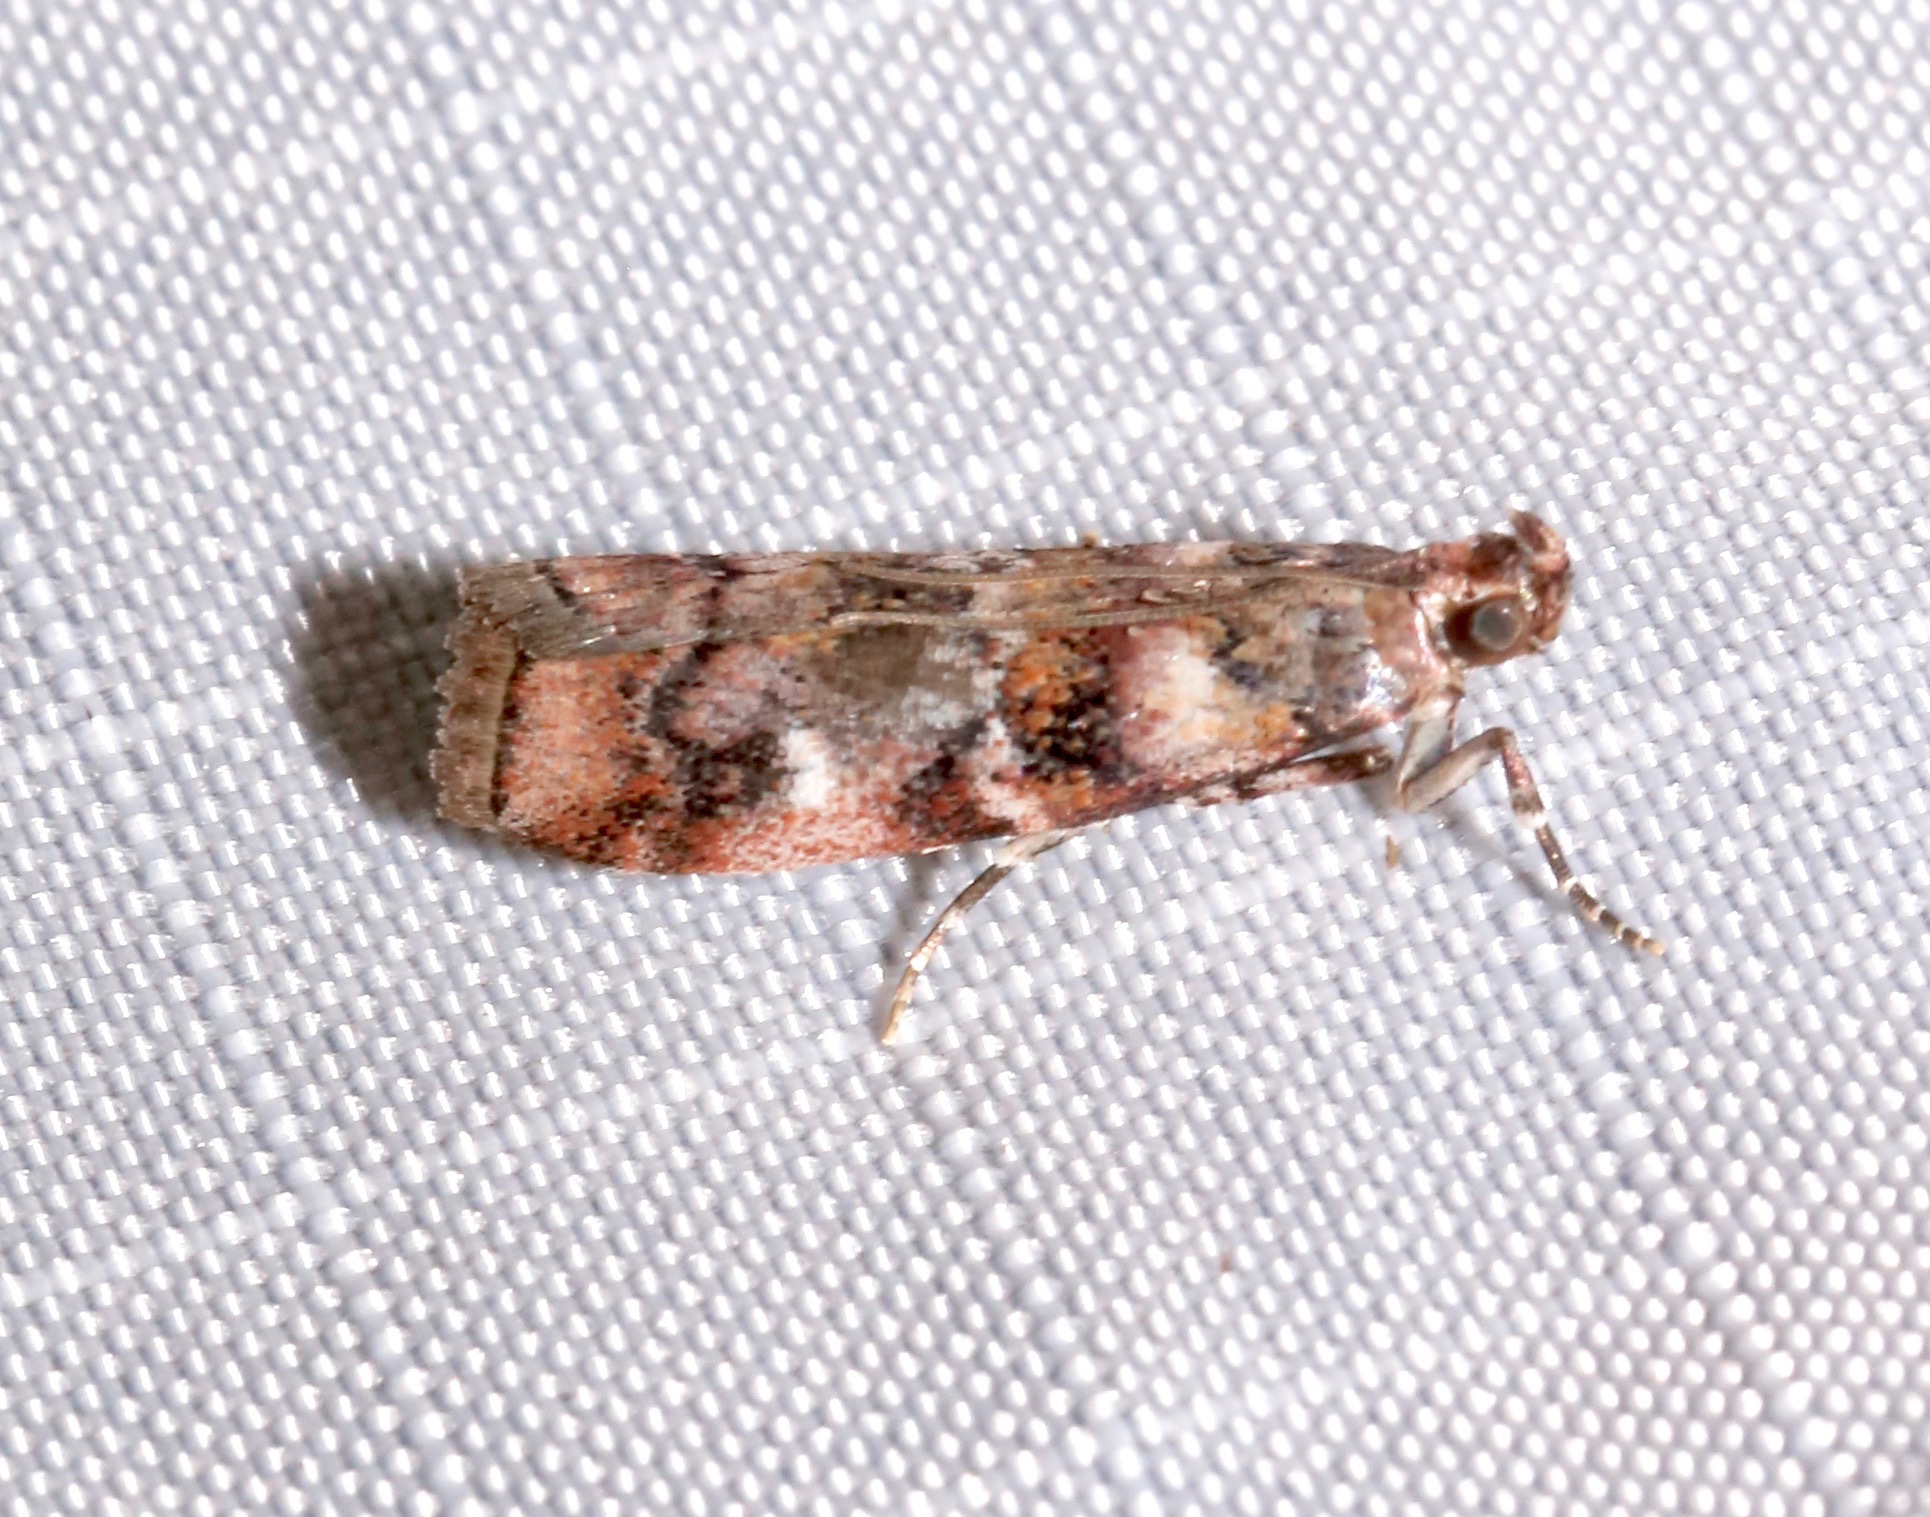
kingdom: Animalia
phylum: Arthropoda
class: Insecta
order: Lepidoptera
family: Pyralidae
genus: Dioryctria
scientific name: Dioryctria pygmaeella
